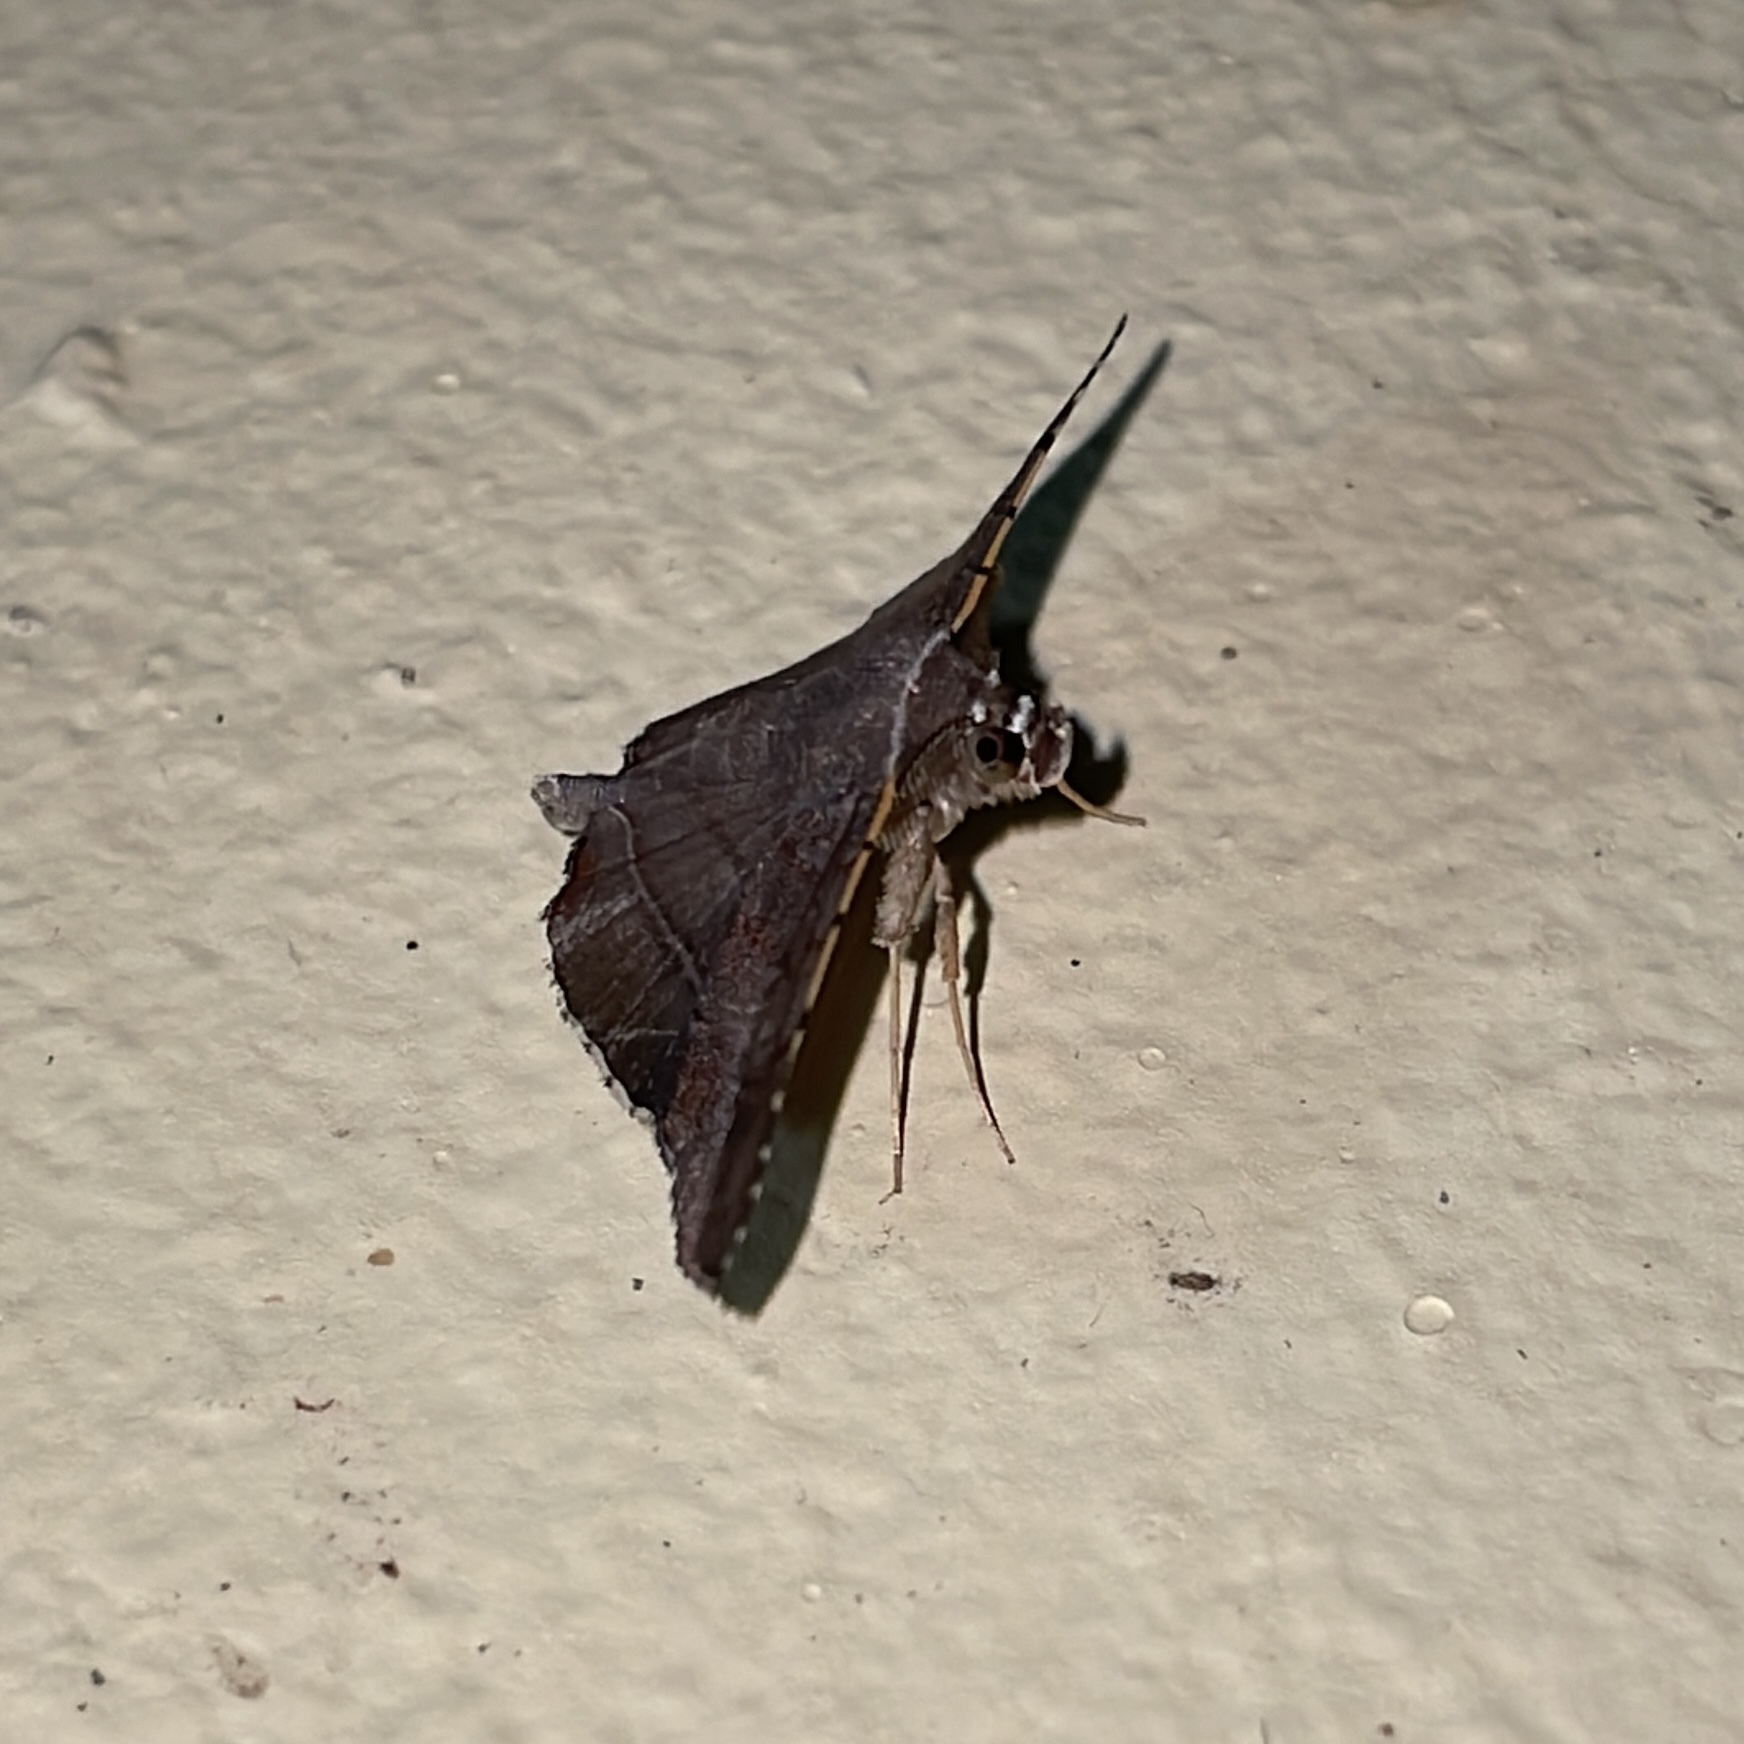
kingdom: Animalia
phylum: Arthropoda
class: Insecta
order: Lepidoptera
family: Erebidae
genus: Clapra
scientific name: Clapra marginata
